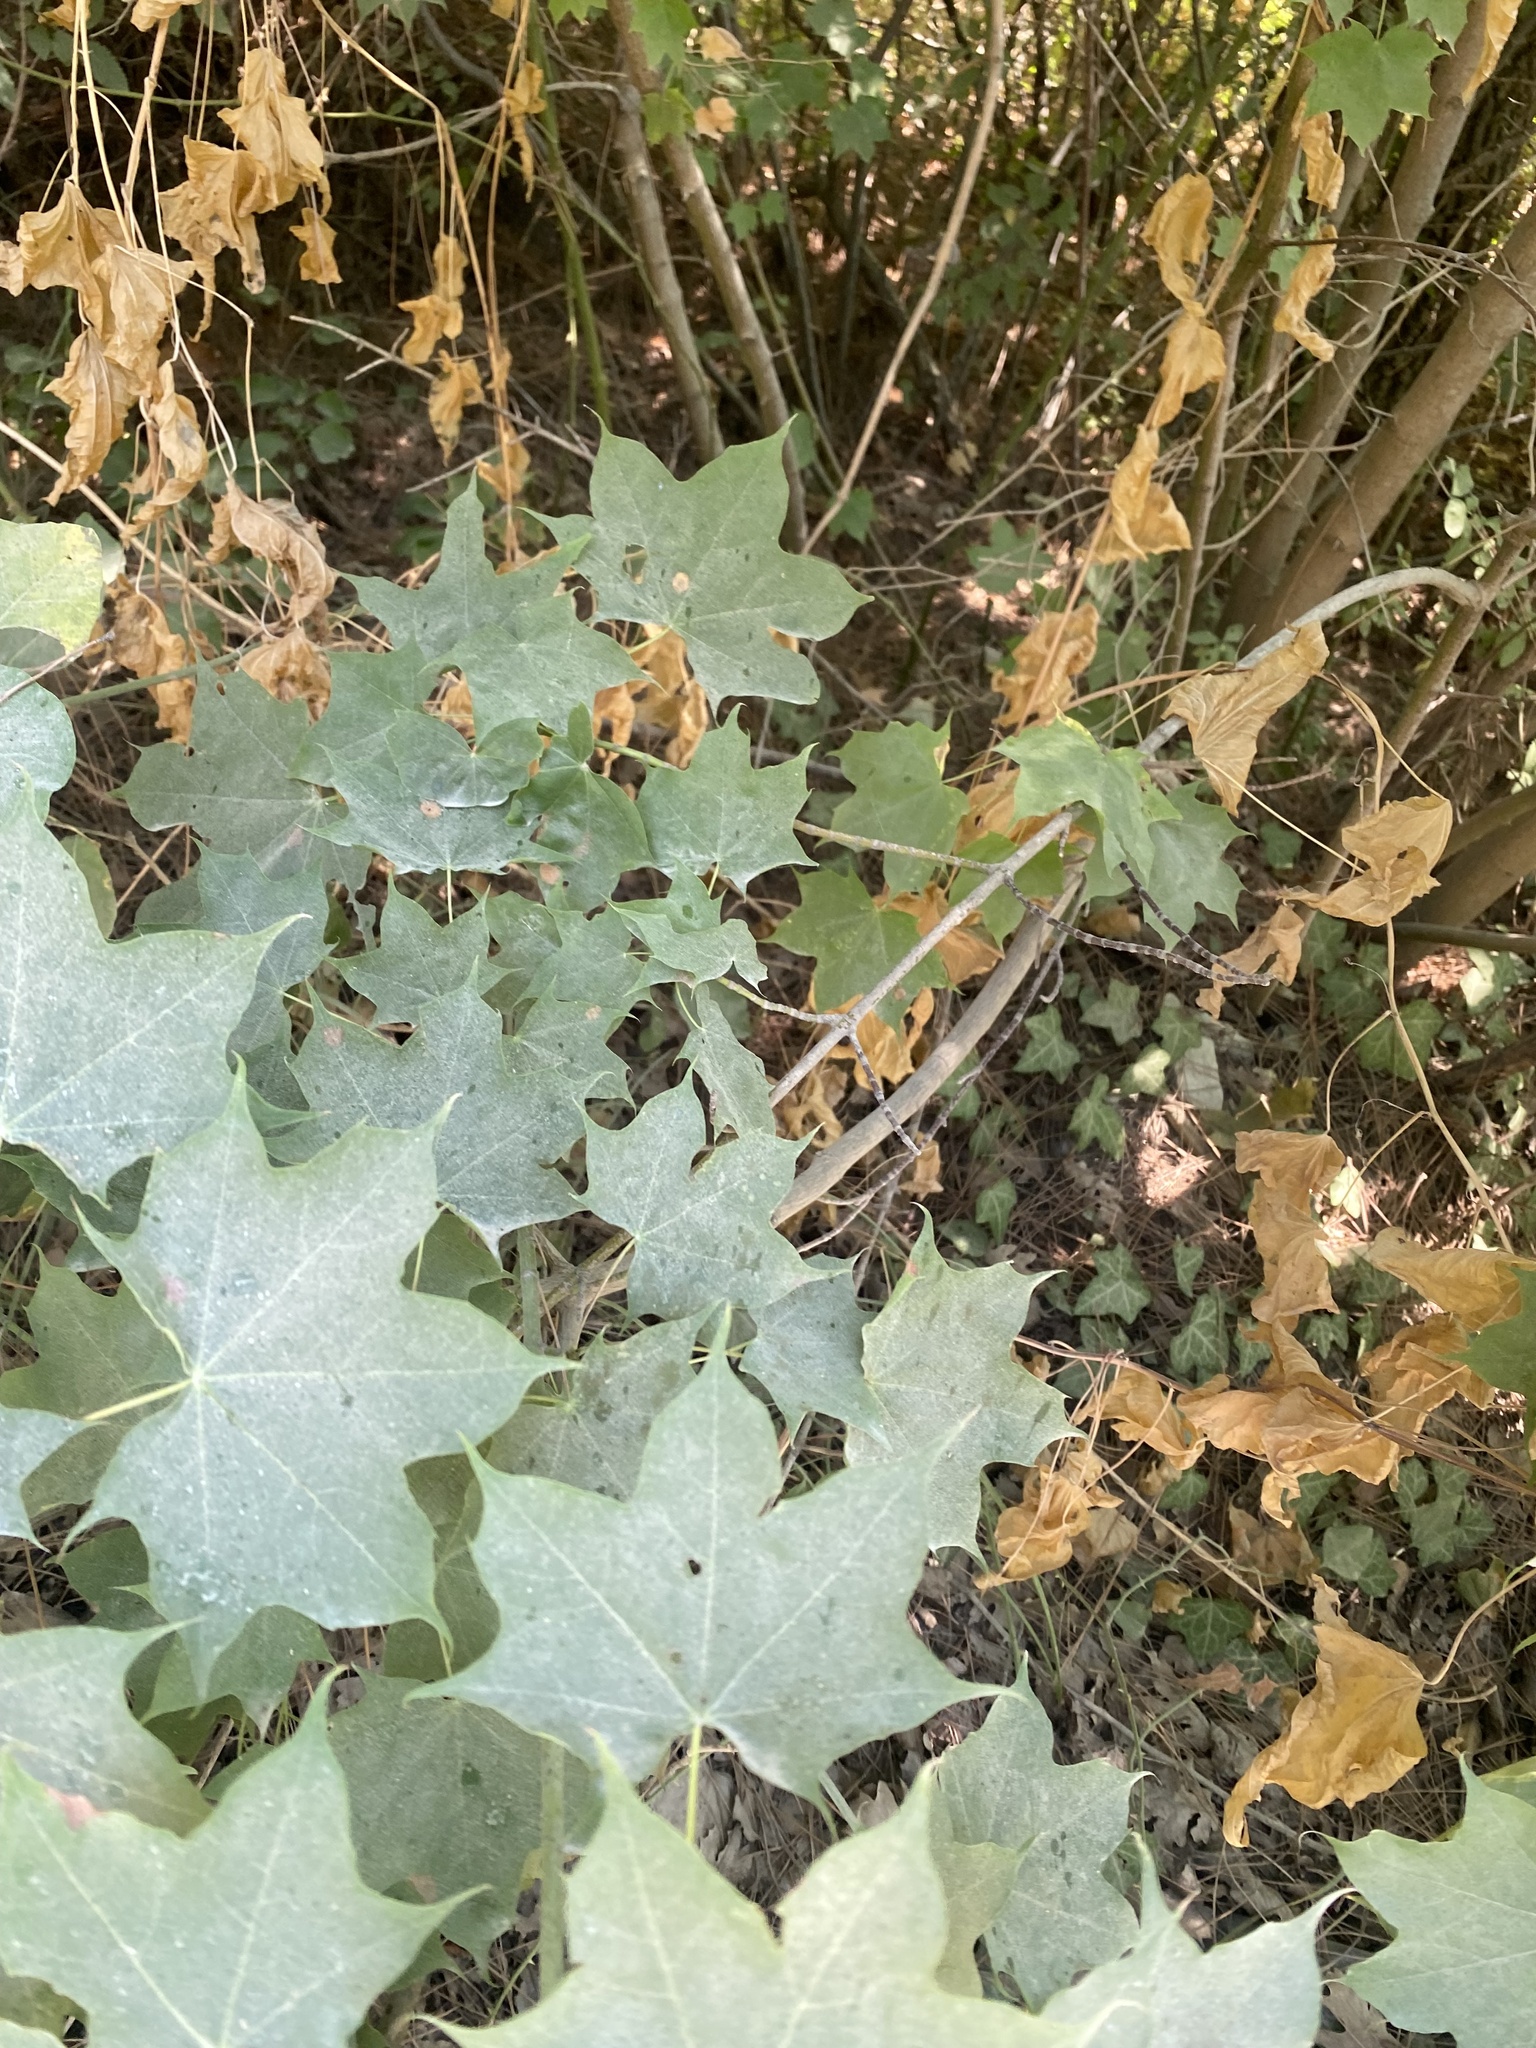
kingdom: Plantae
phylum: Tracheophyta
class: Magnoliopsida
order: Sapindales
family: Sapindaceae
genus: Acer
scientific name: Acer cappadocicum
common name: Cappadocian maple
